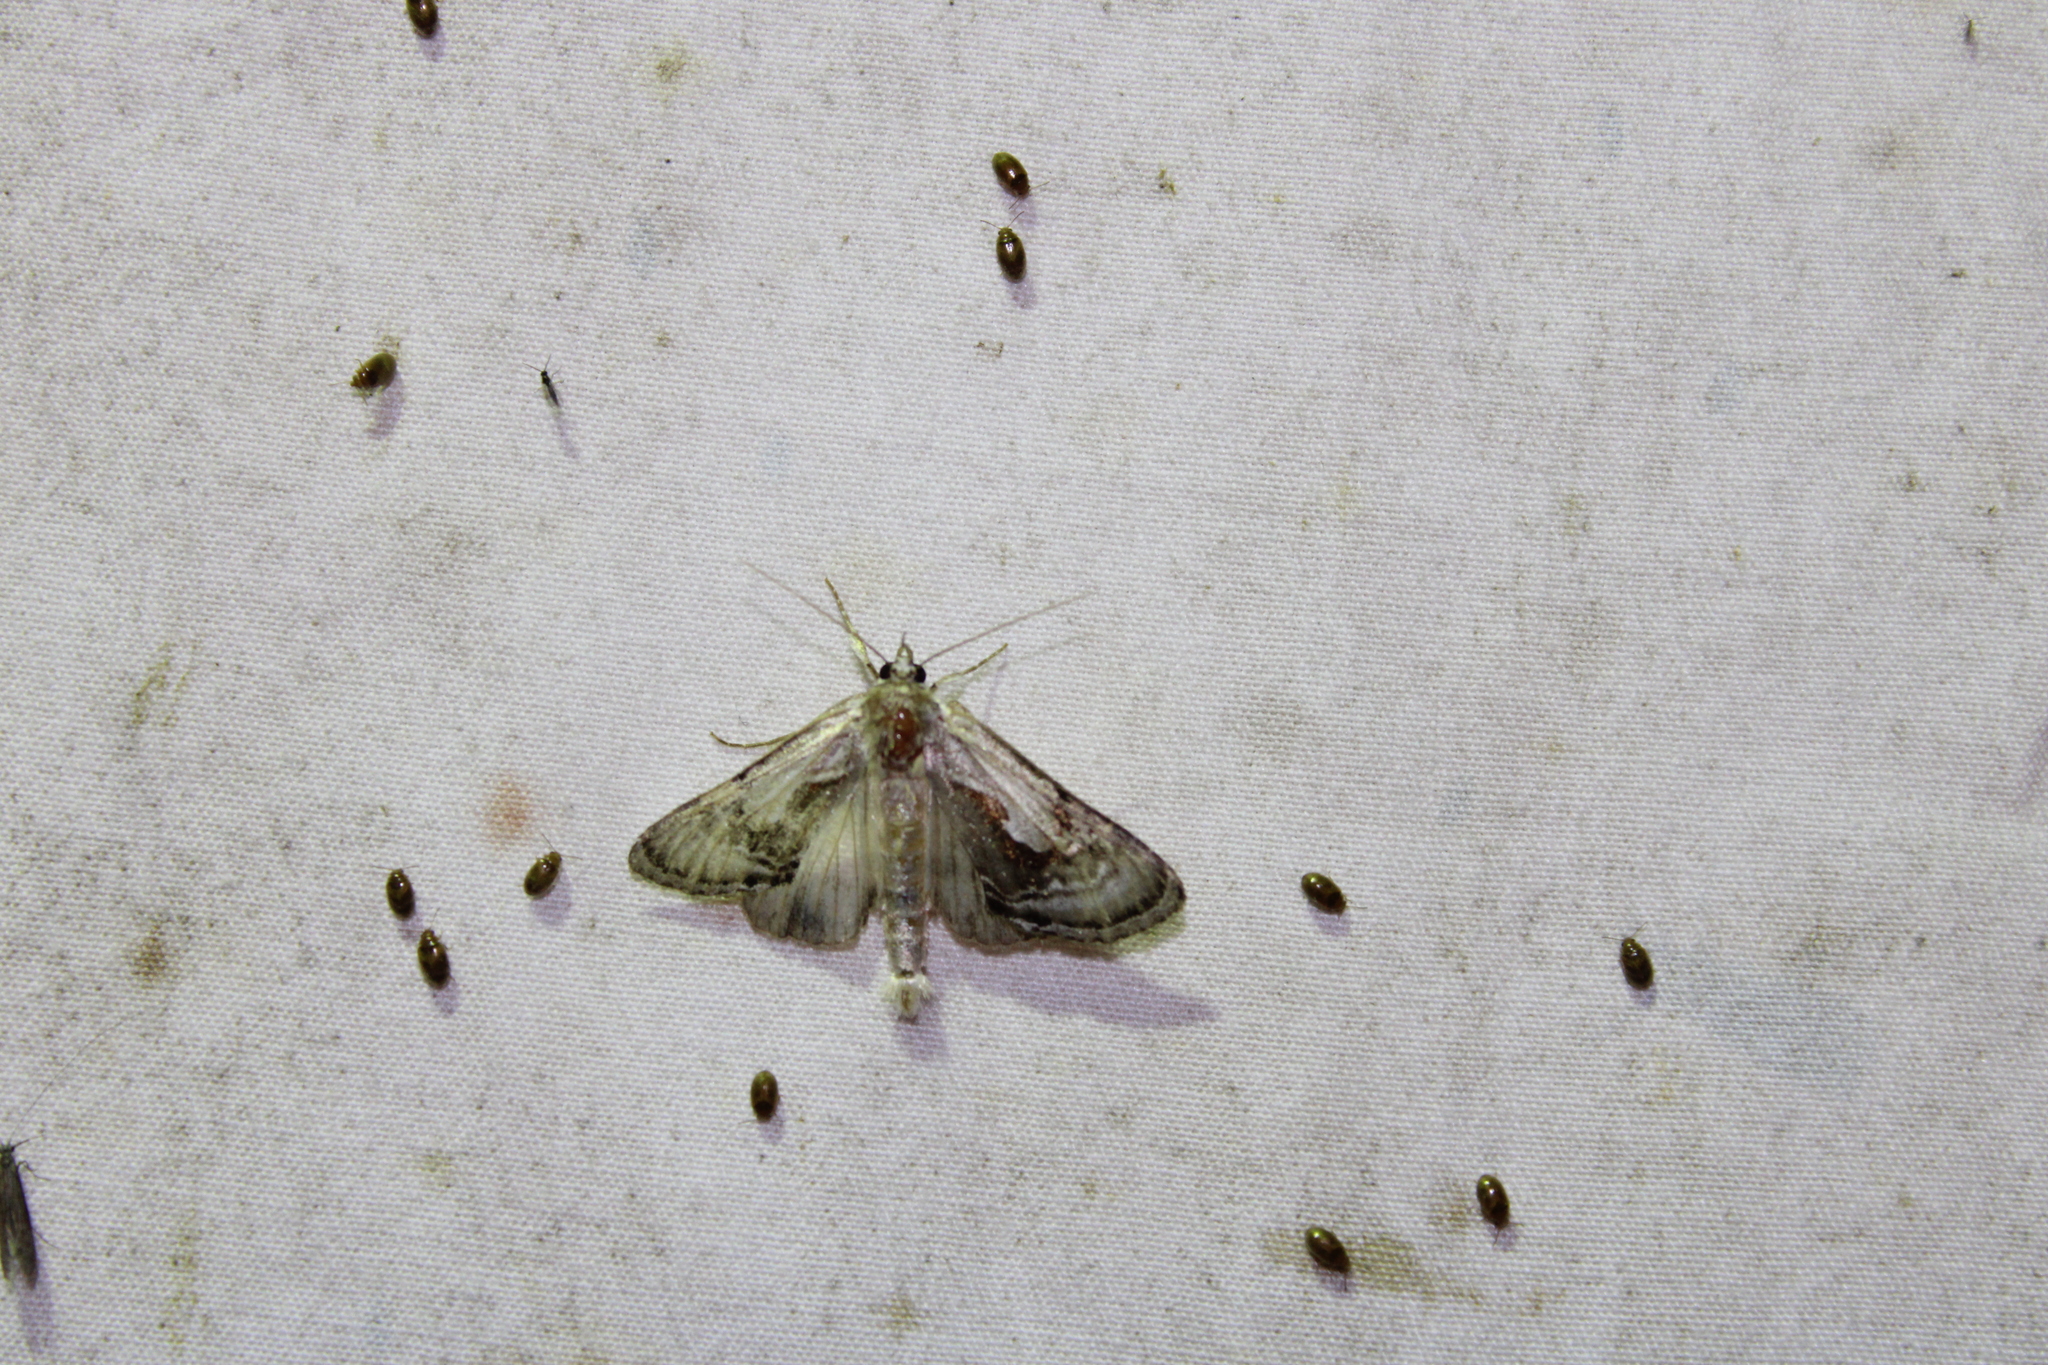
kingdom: Animalia
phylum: Arthropoda
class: Insecta
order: Lepidoptera
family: Noctuidae
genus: Chrysanympha
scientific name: Chrysanympha formosa
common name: Formosa looper moth
